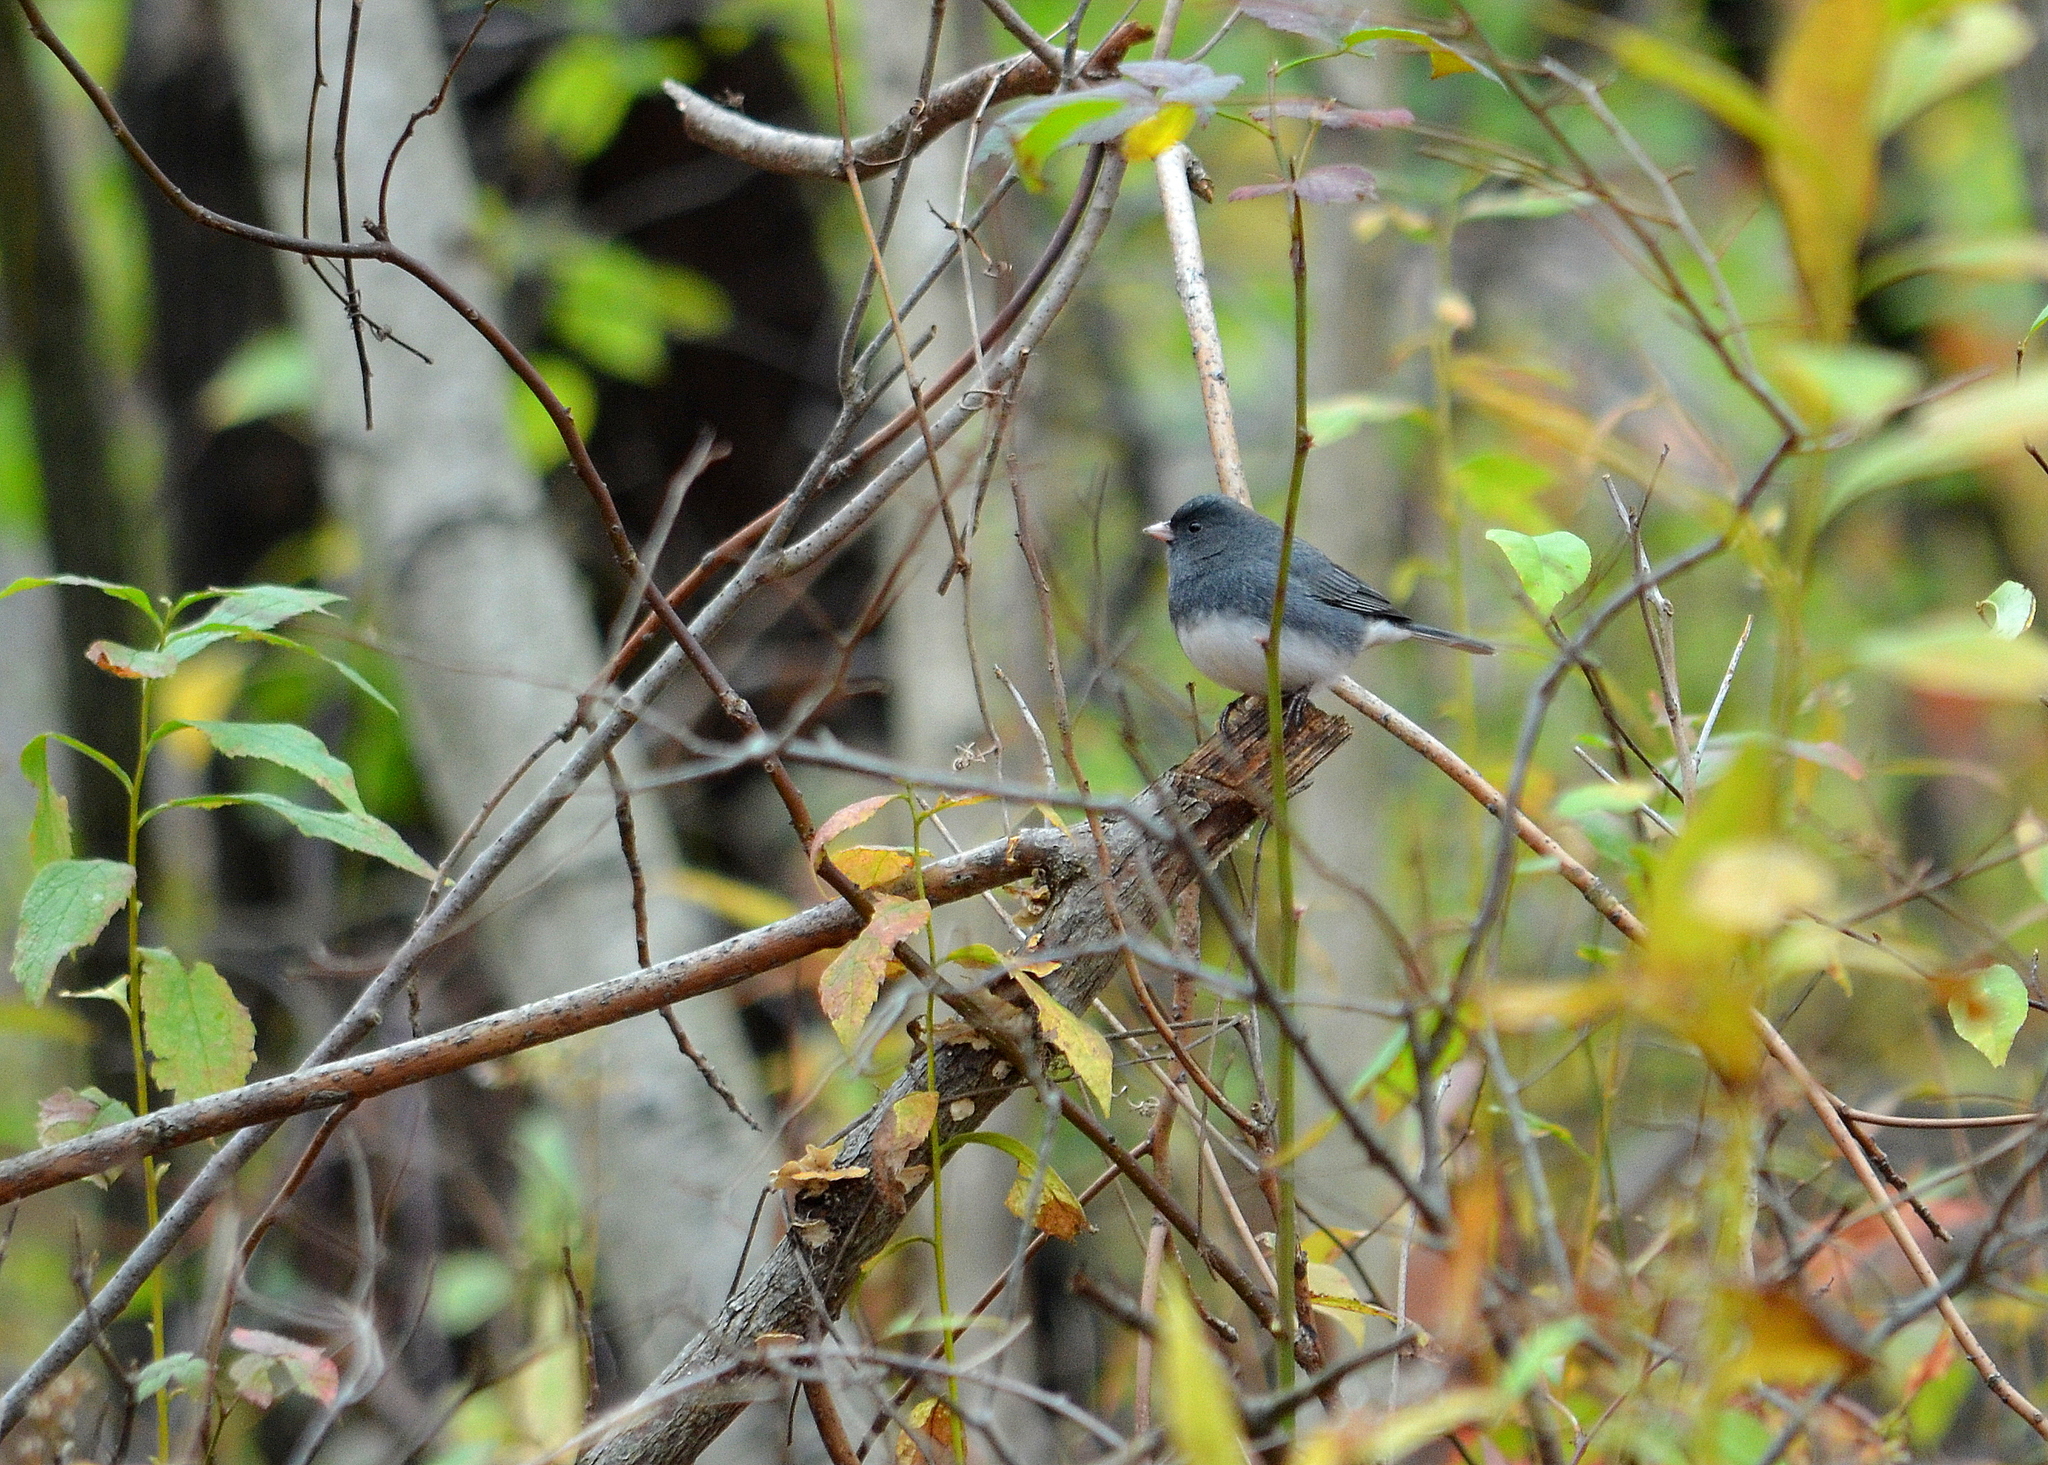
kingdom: Animalia
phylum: Chordata
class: Aves
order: Passeriformes
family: Passerellidae
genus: Junco
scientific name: Junco hyemalis
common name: Dark-eyed junco
